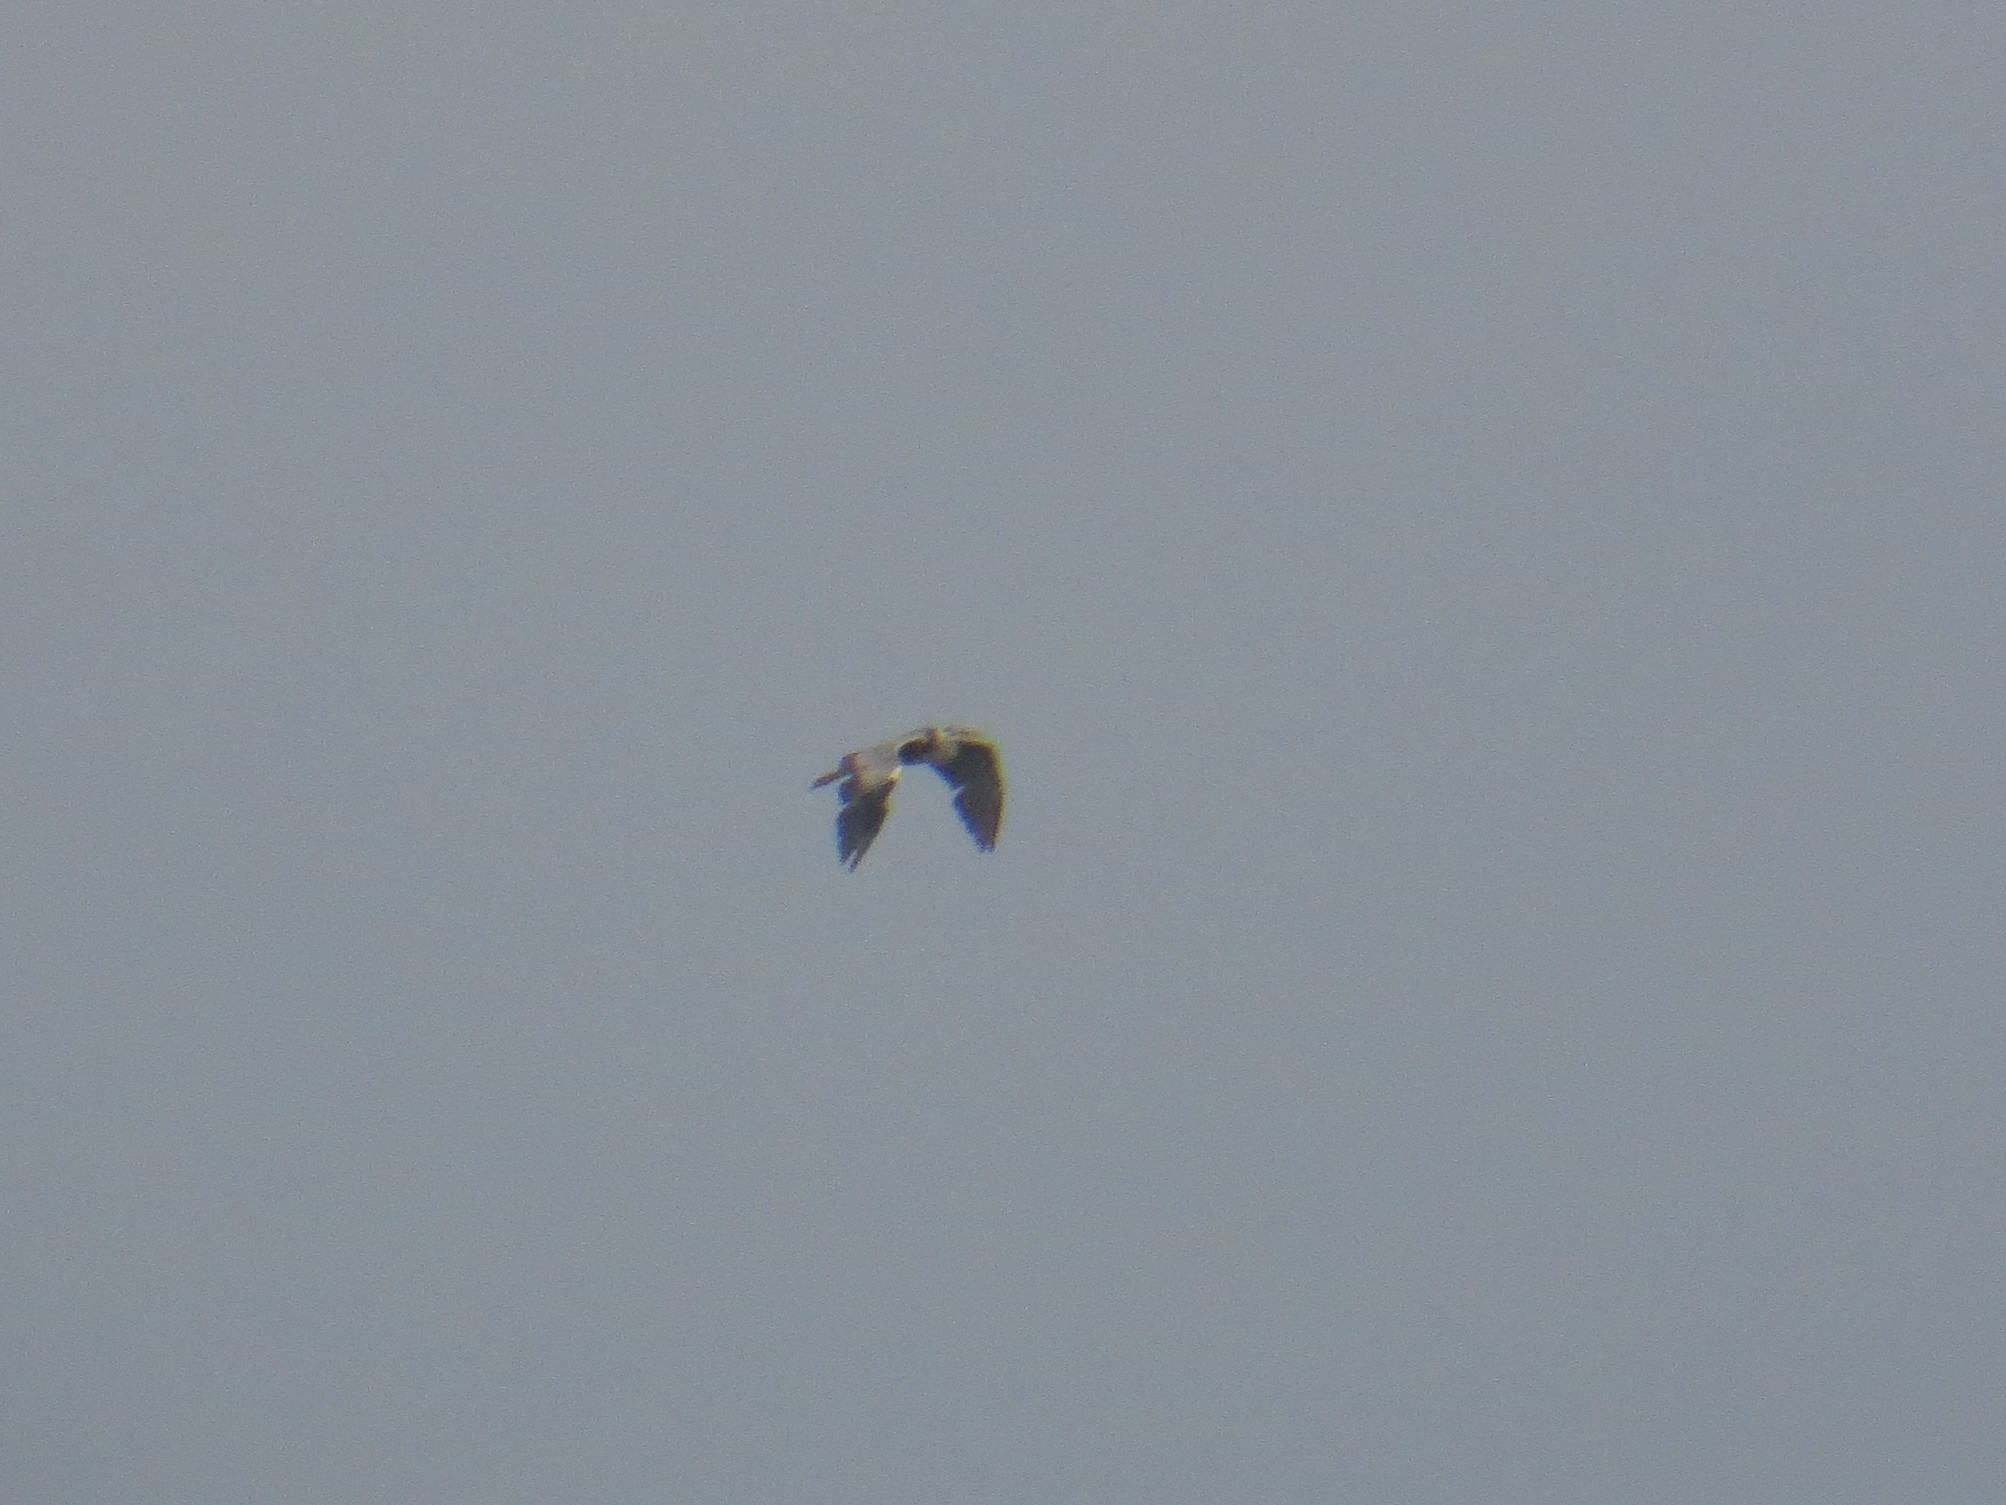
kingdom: Animalia
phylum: Chordata
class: Aves
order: Pelecaniformes
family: Ardeidae
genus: Ardea
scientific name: Ardea cinerea
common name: Grey heron
